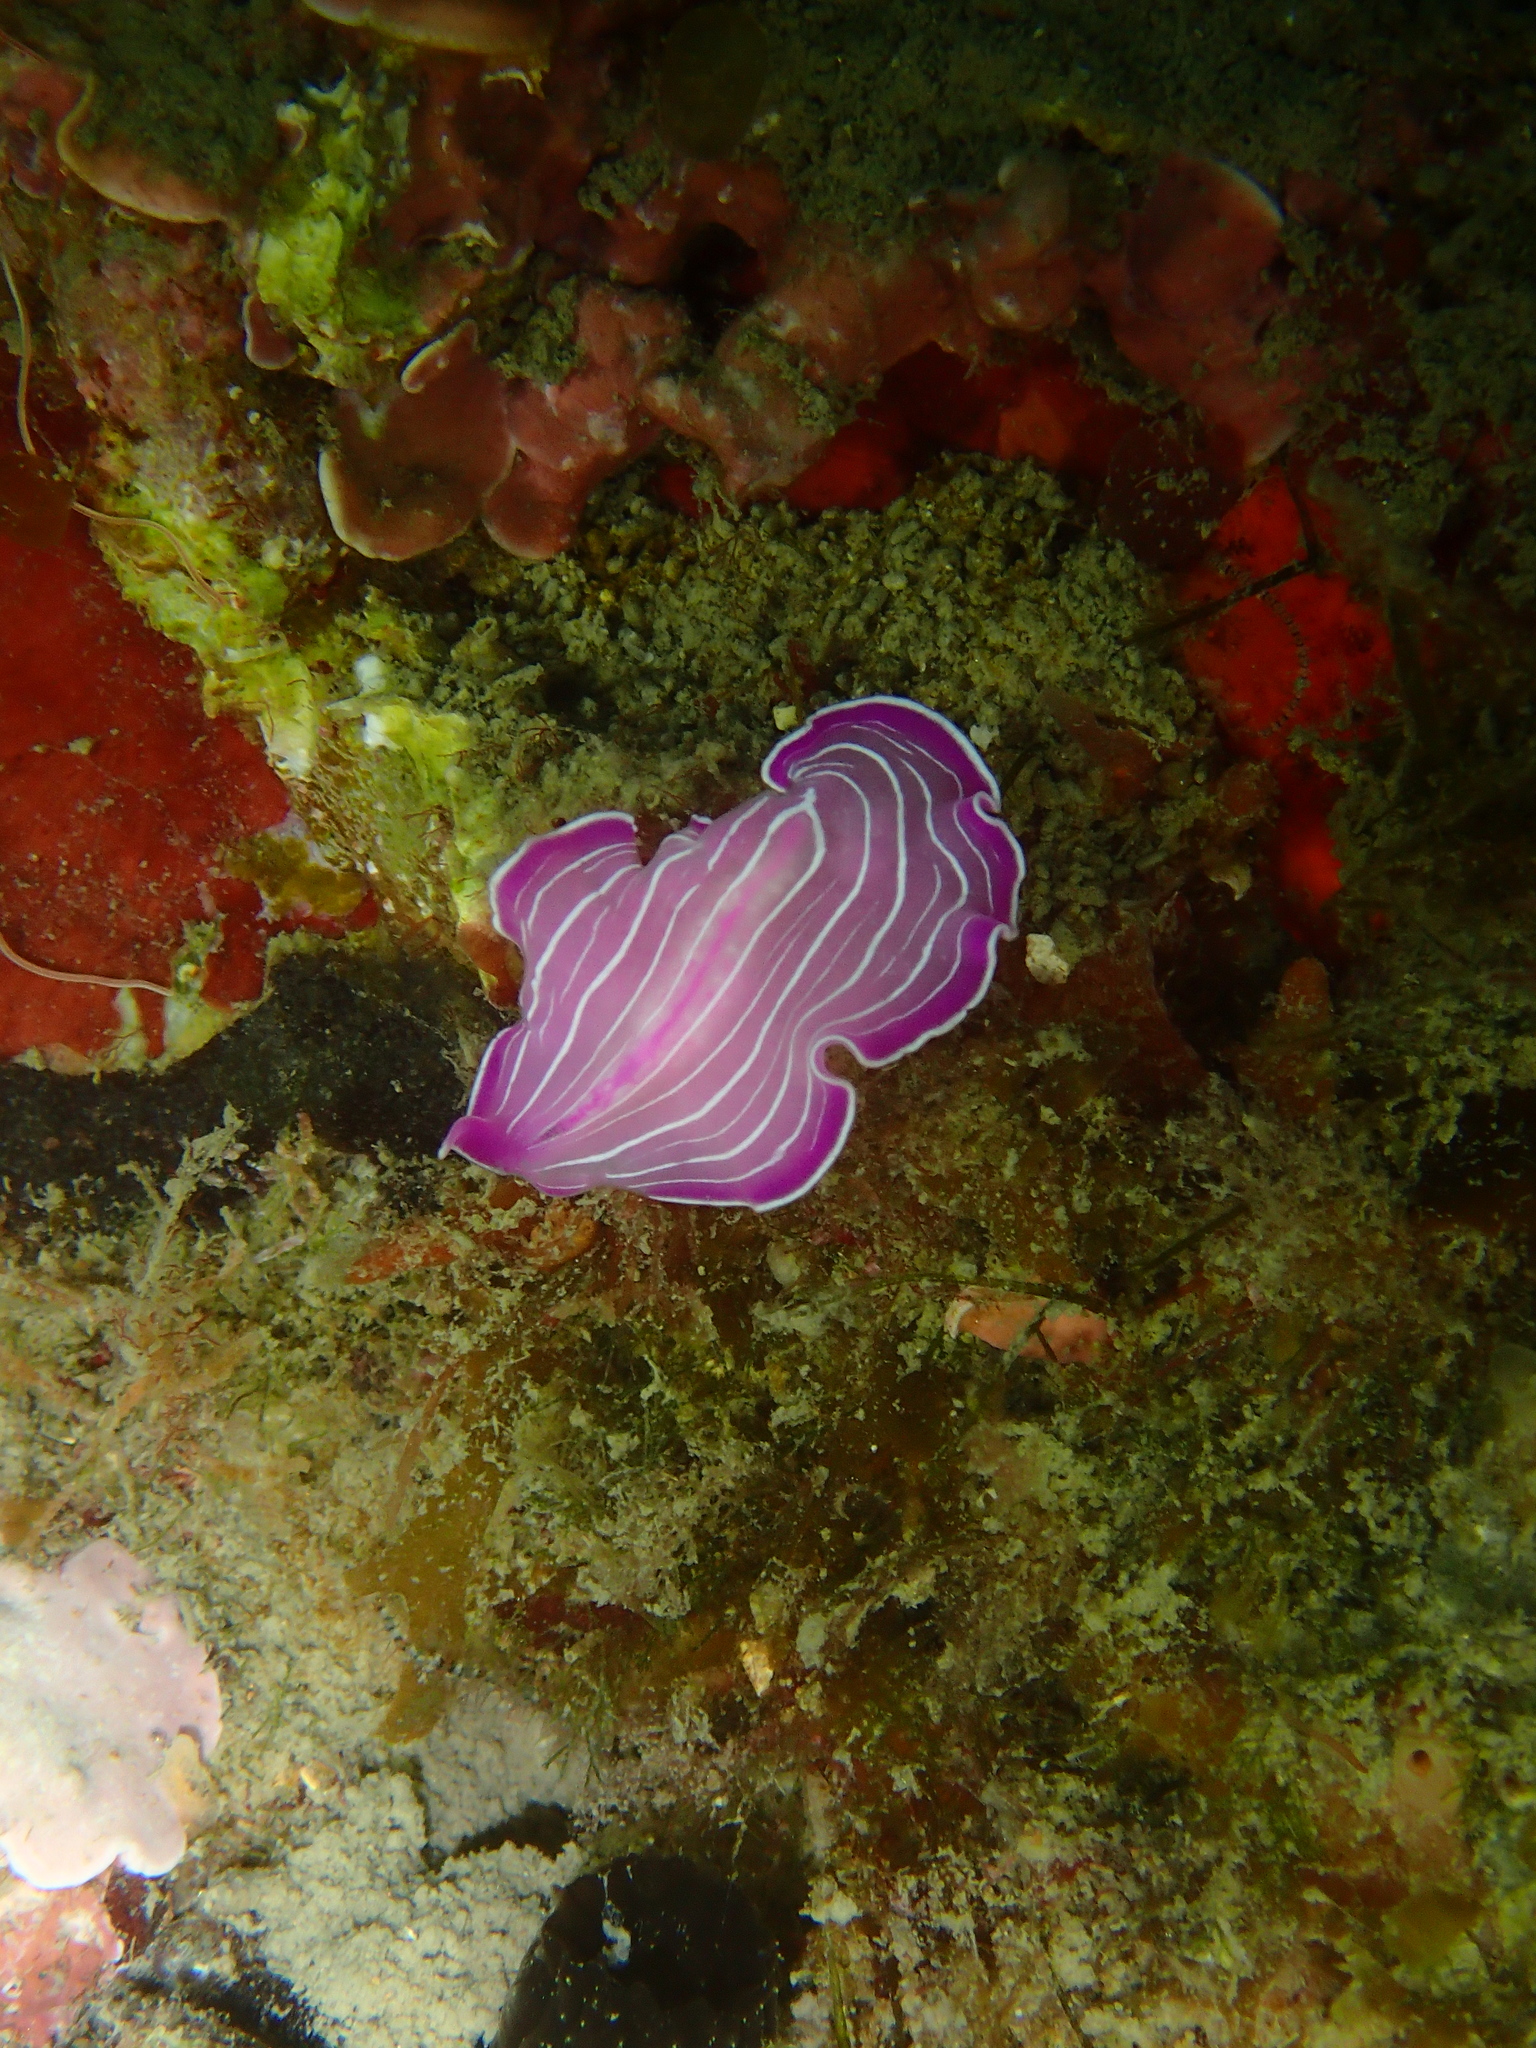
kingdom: Animalia
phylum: Platyhelminthes
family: Euryleptidae
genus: Prostheceraeus
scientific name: Prostheceraeus roseus
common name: Pink flatworm
